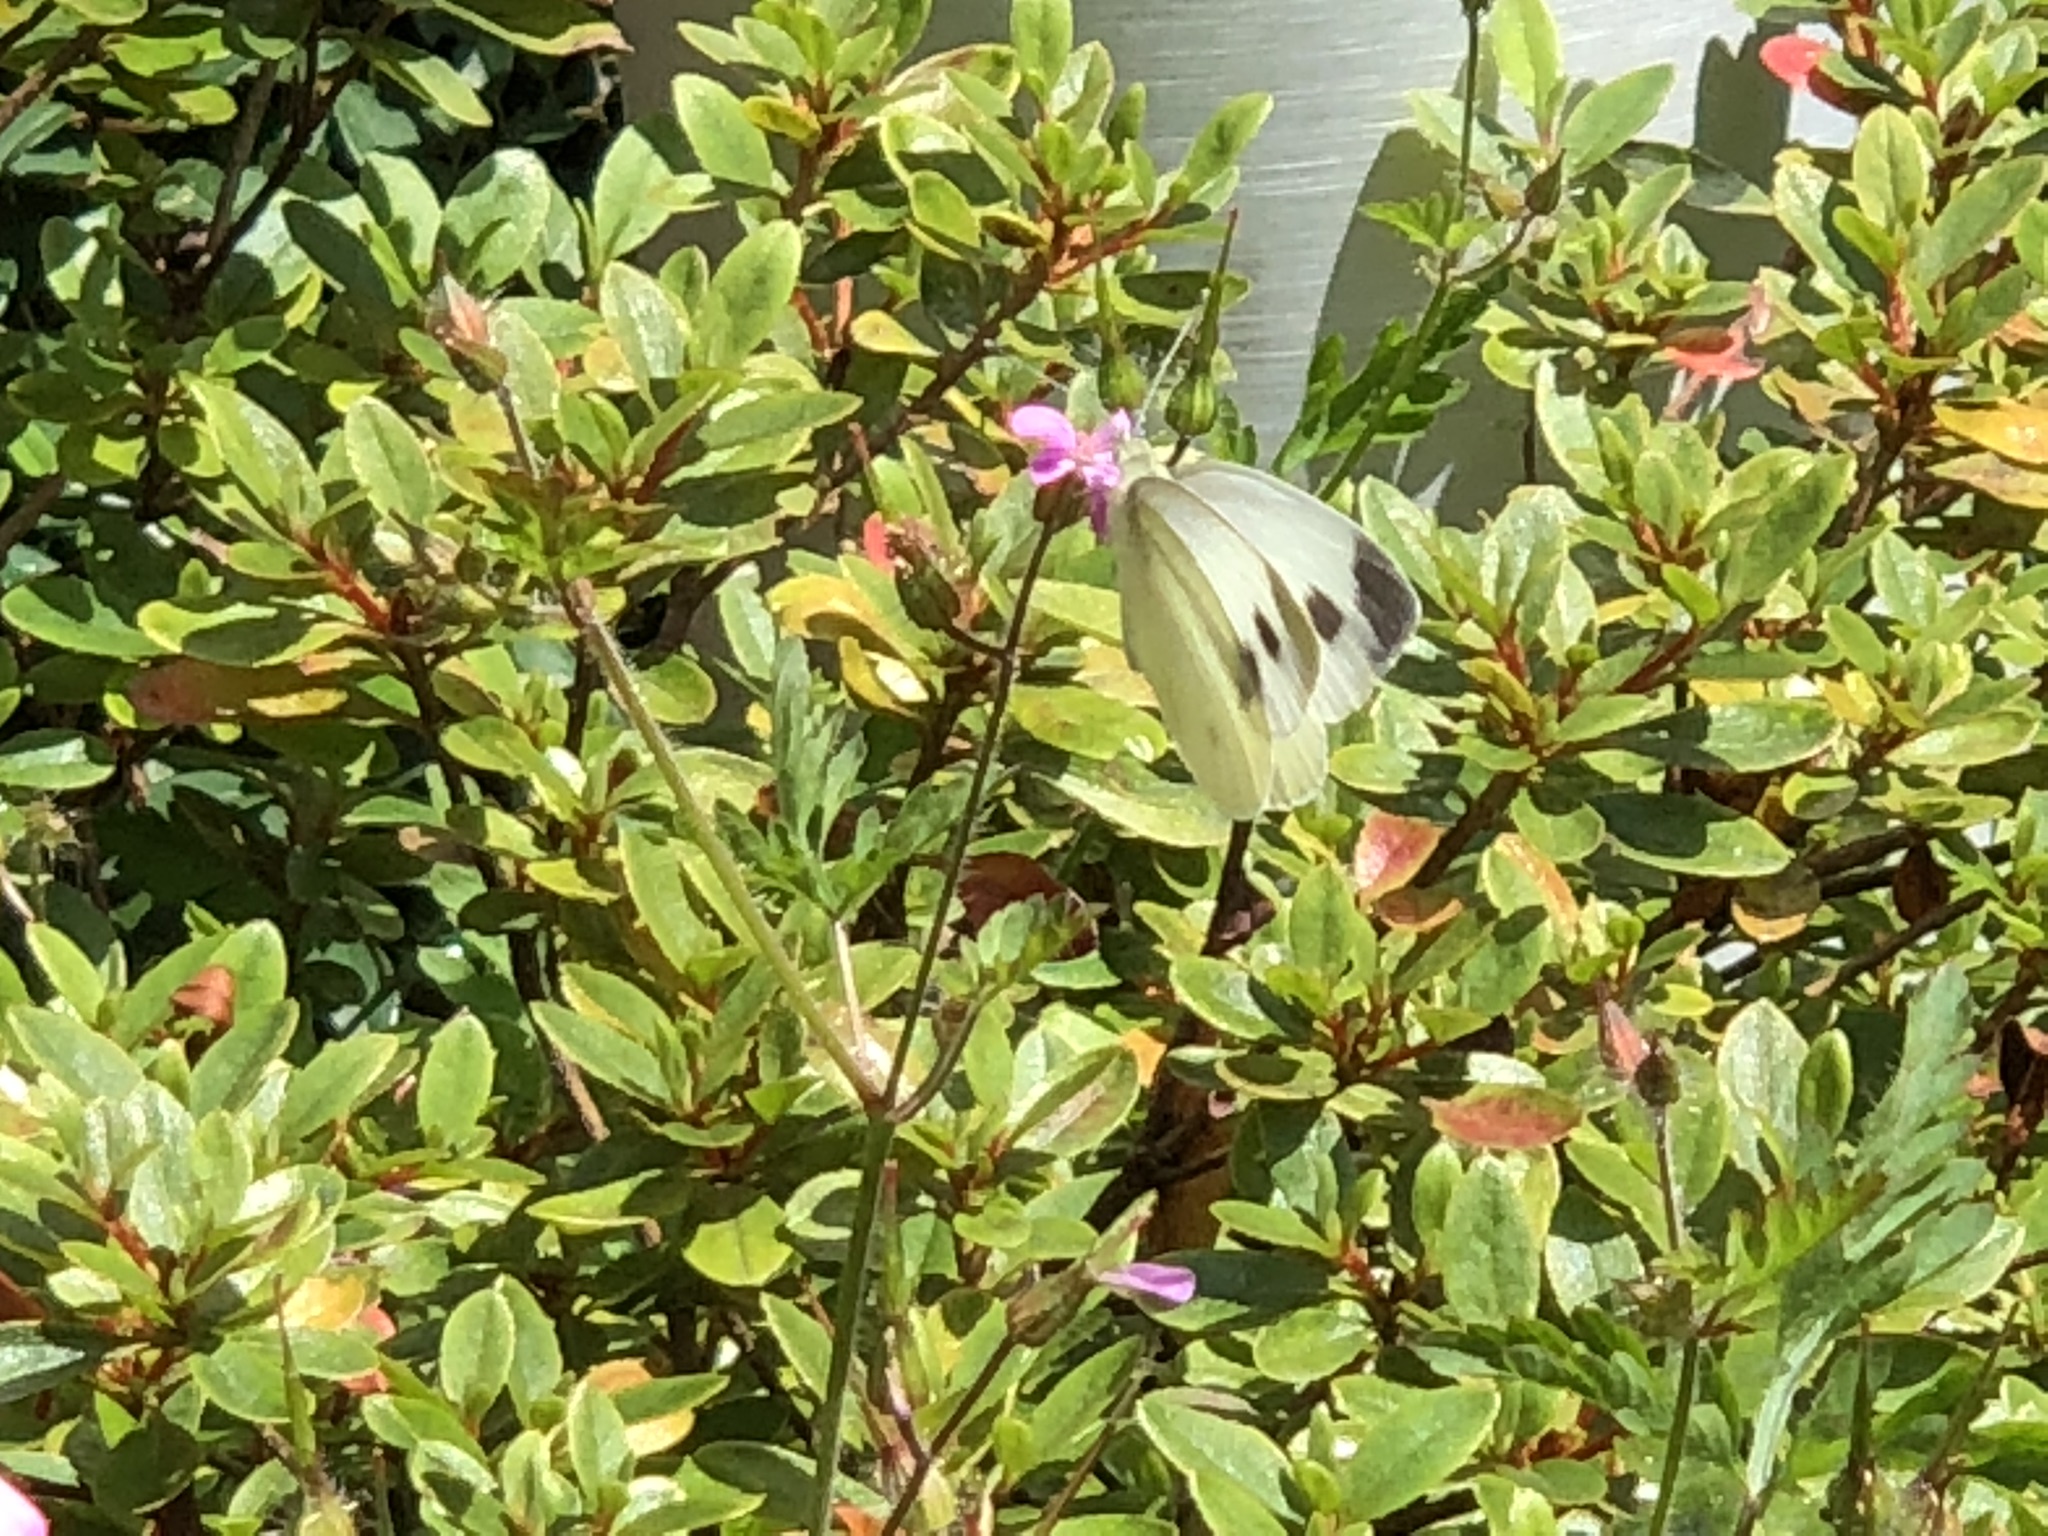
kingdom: Animalia
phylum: Arthropoda
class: Insecta
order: Lepidoptera
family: Pieridae
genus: Pieris
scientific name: Pieris mannii
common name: Southern small white
